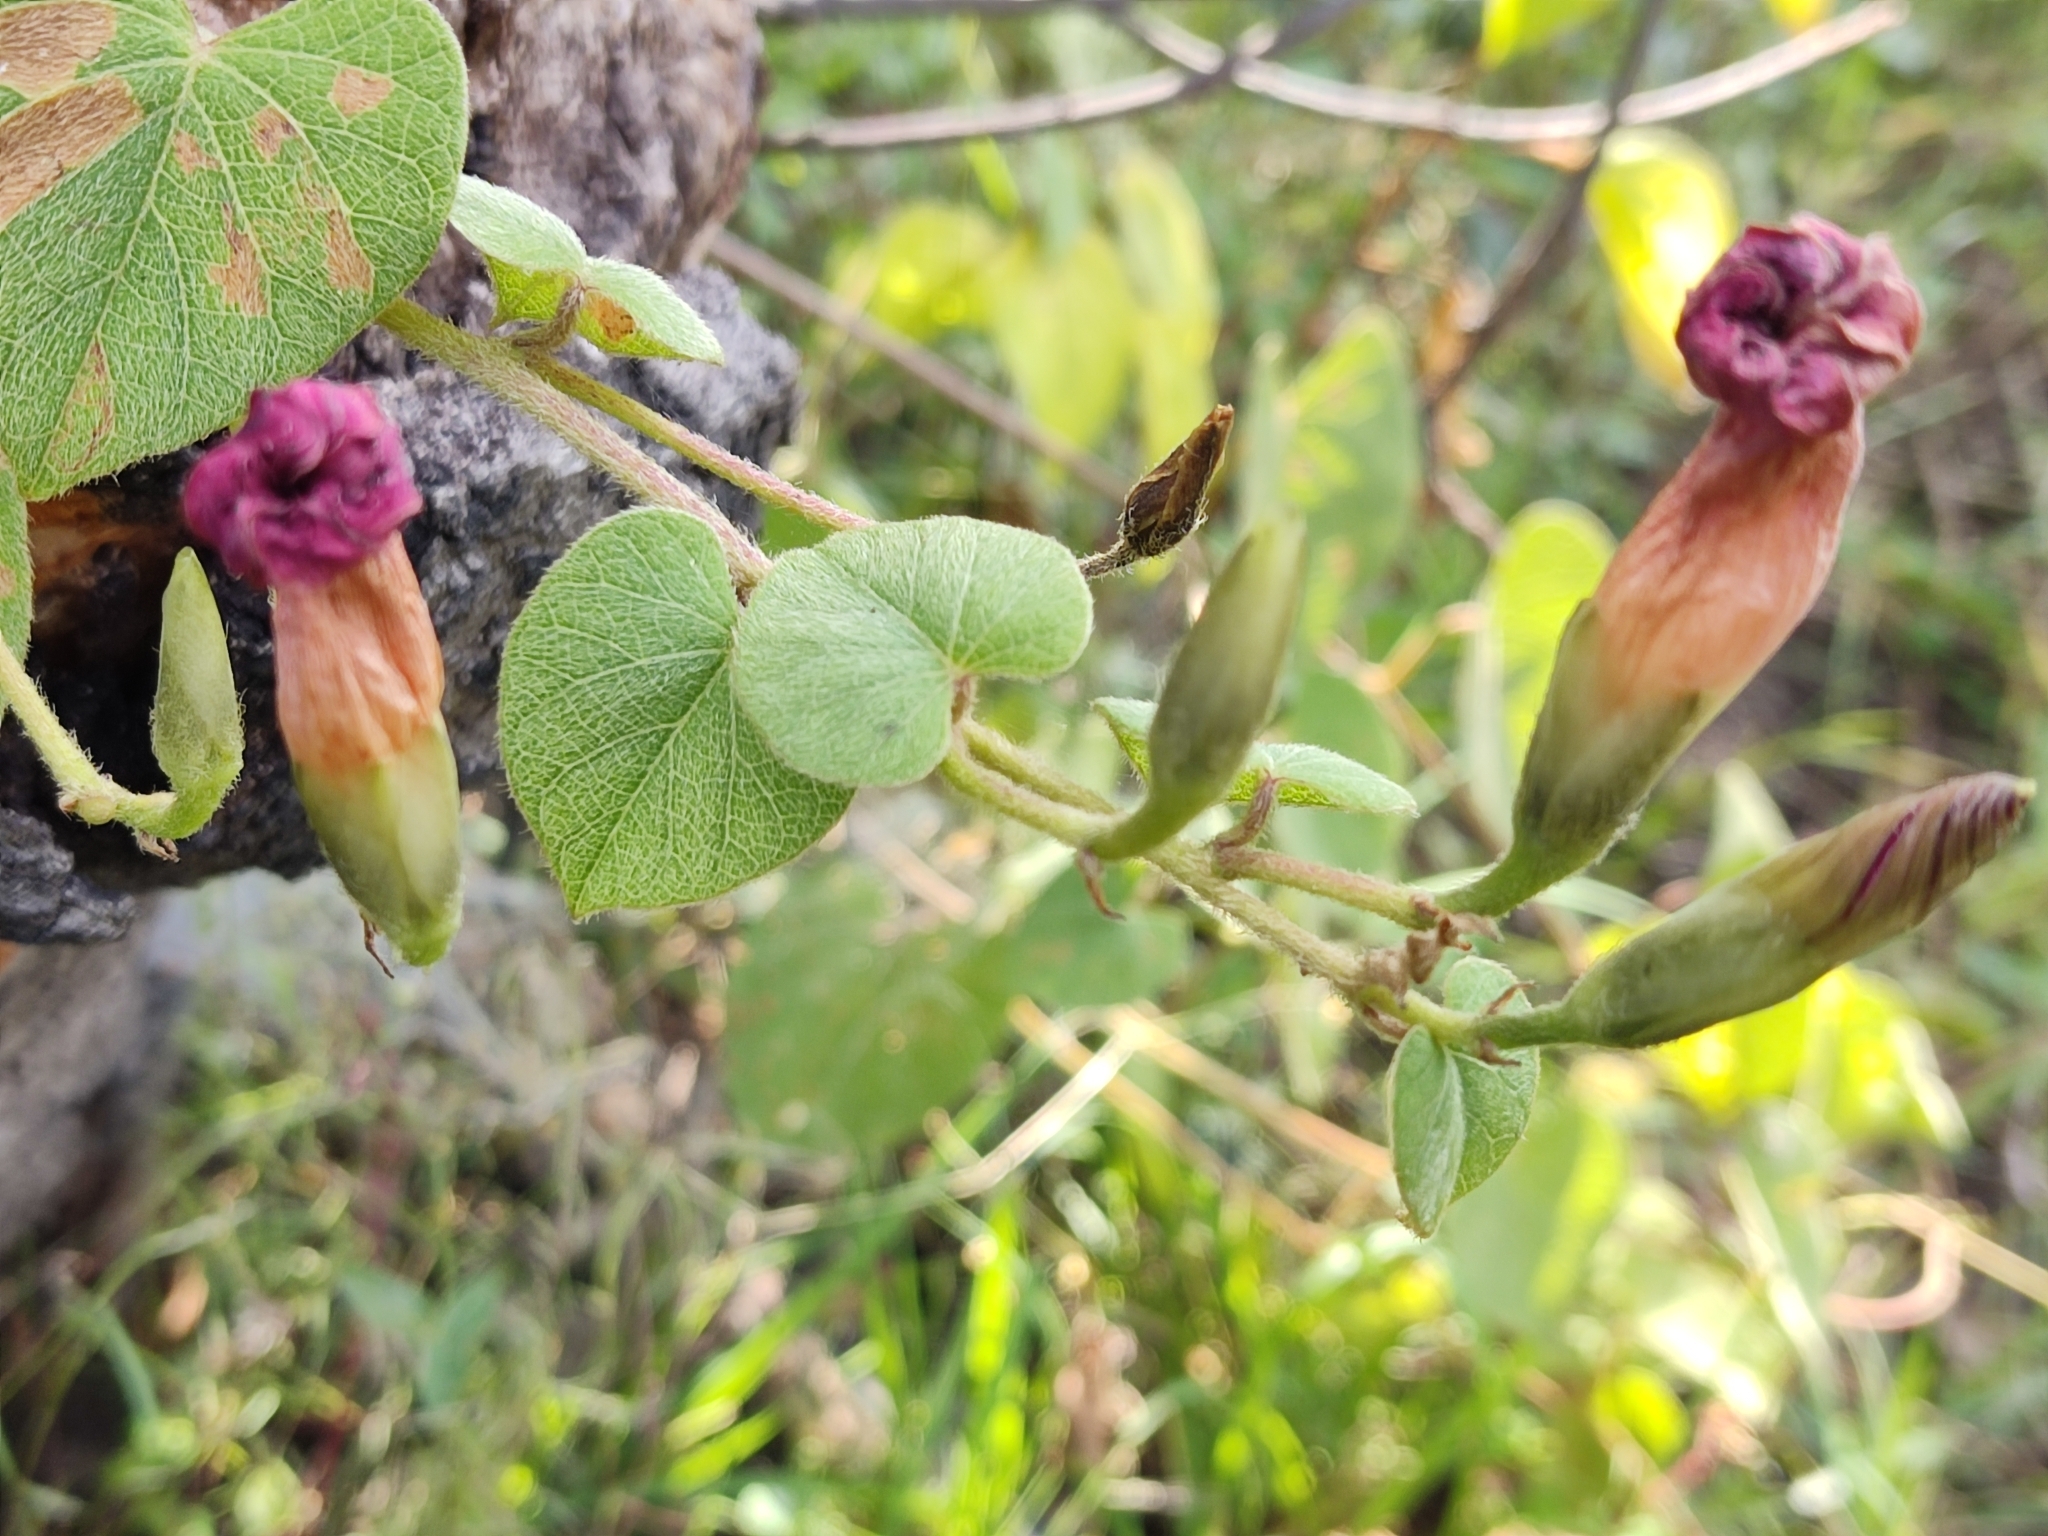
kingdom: Plantae
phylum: Tracheophyta
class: Magnoliopsida
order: Solanales
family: Convolvulaceae
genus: Ipomoea
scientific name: Ipomoea orizabensis
